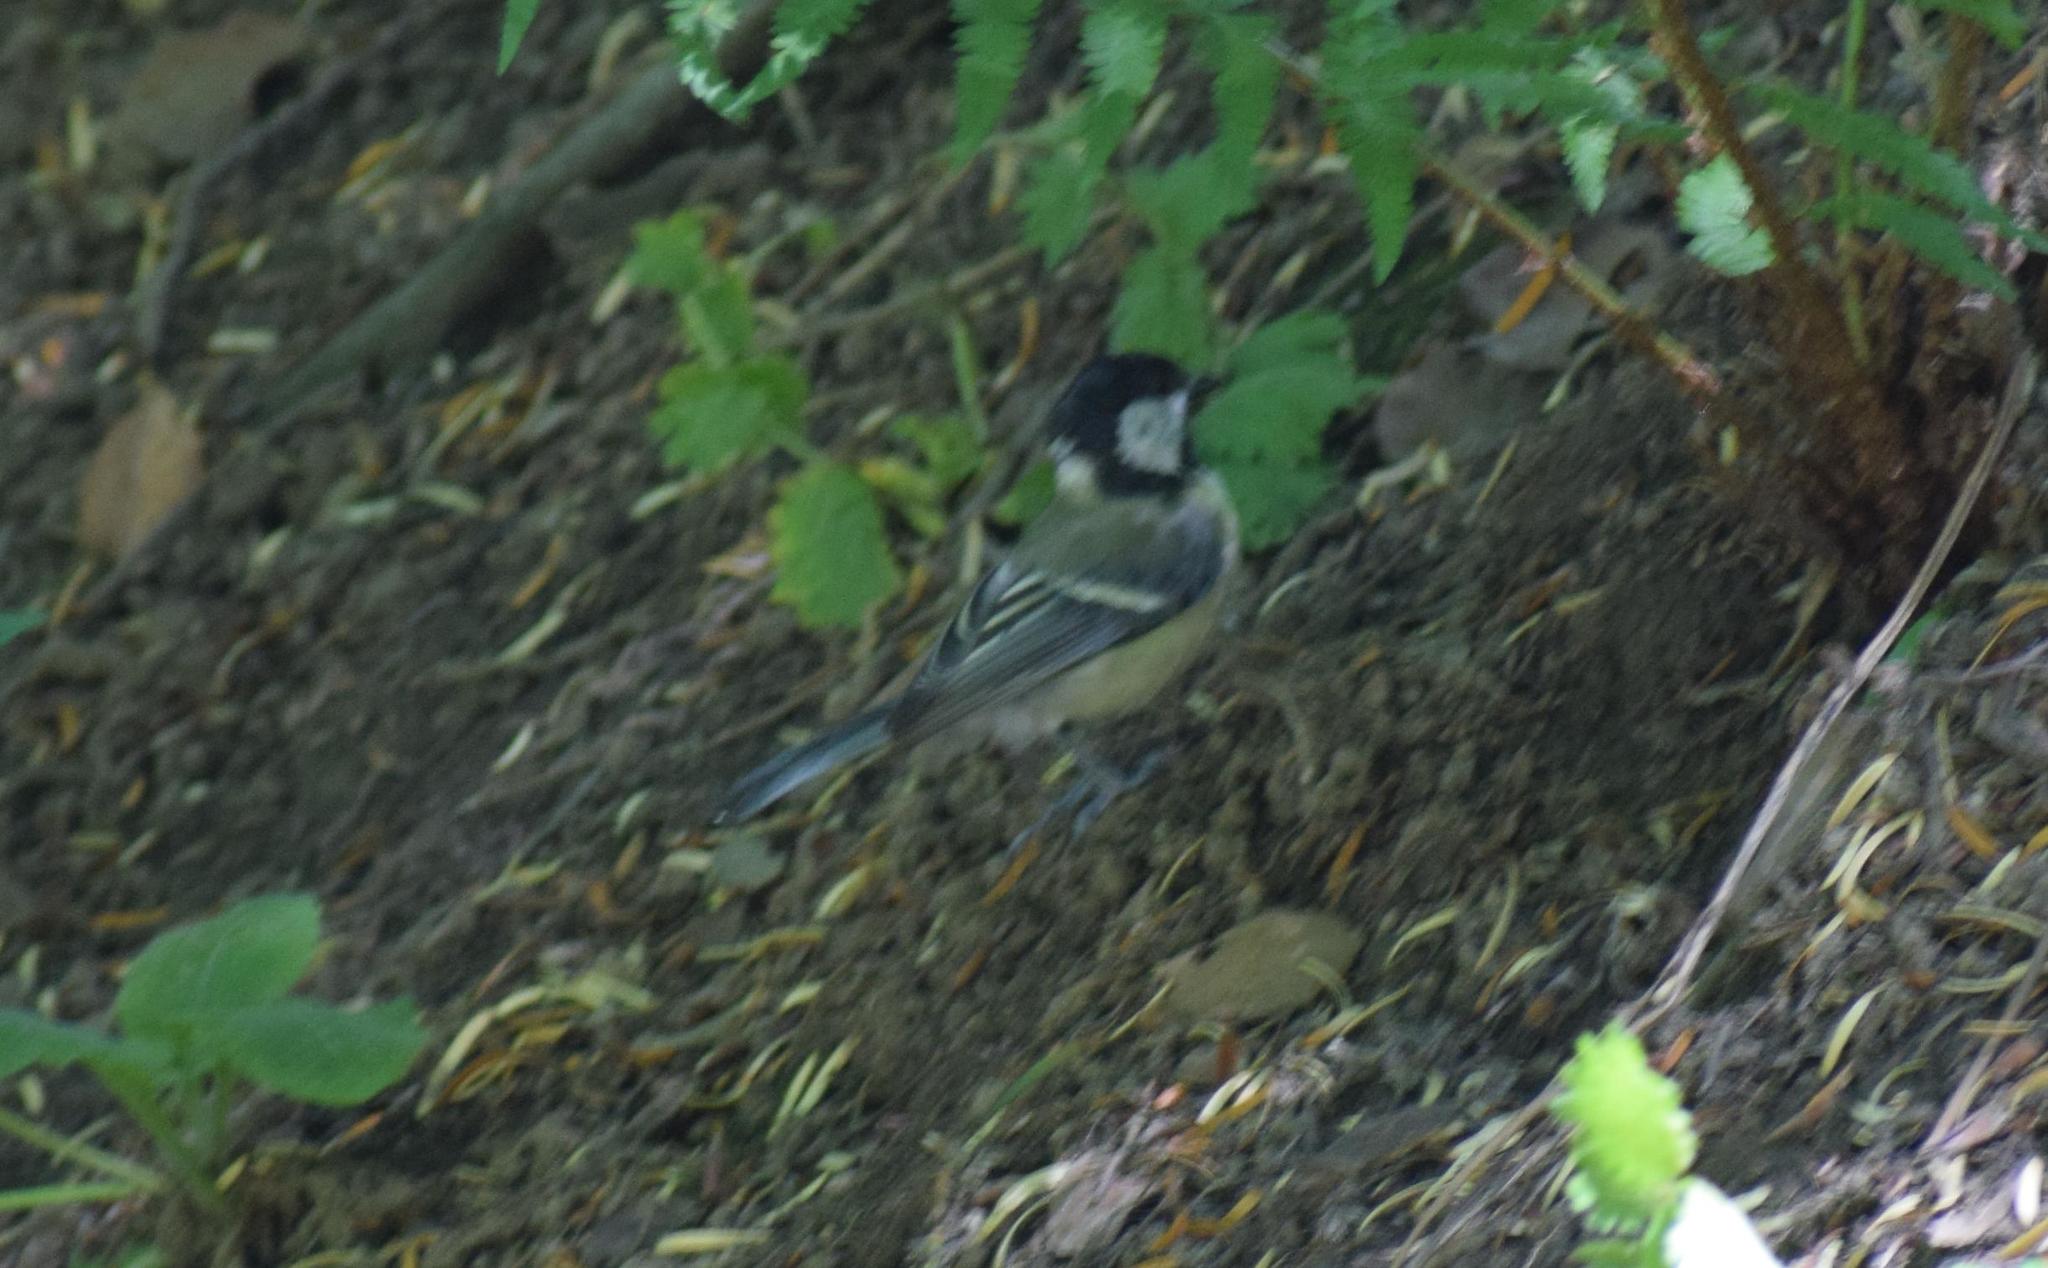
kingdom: Animalia
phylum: Chordata
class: Aves
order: Passeriformes
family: Paridae
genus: Parus
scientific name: Parus major
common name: Great tit
